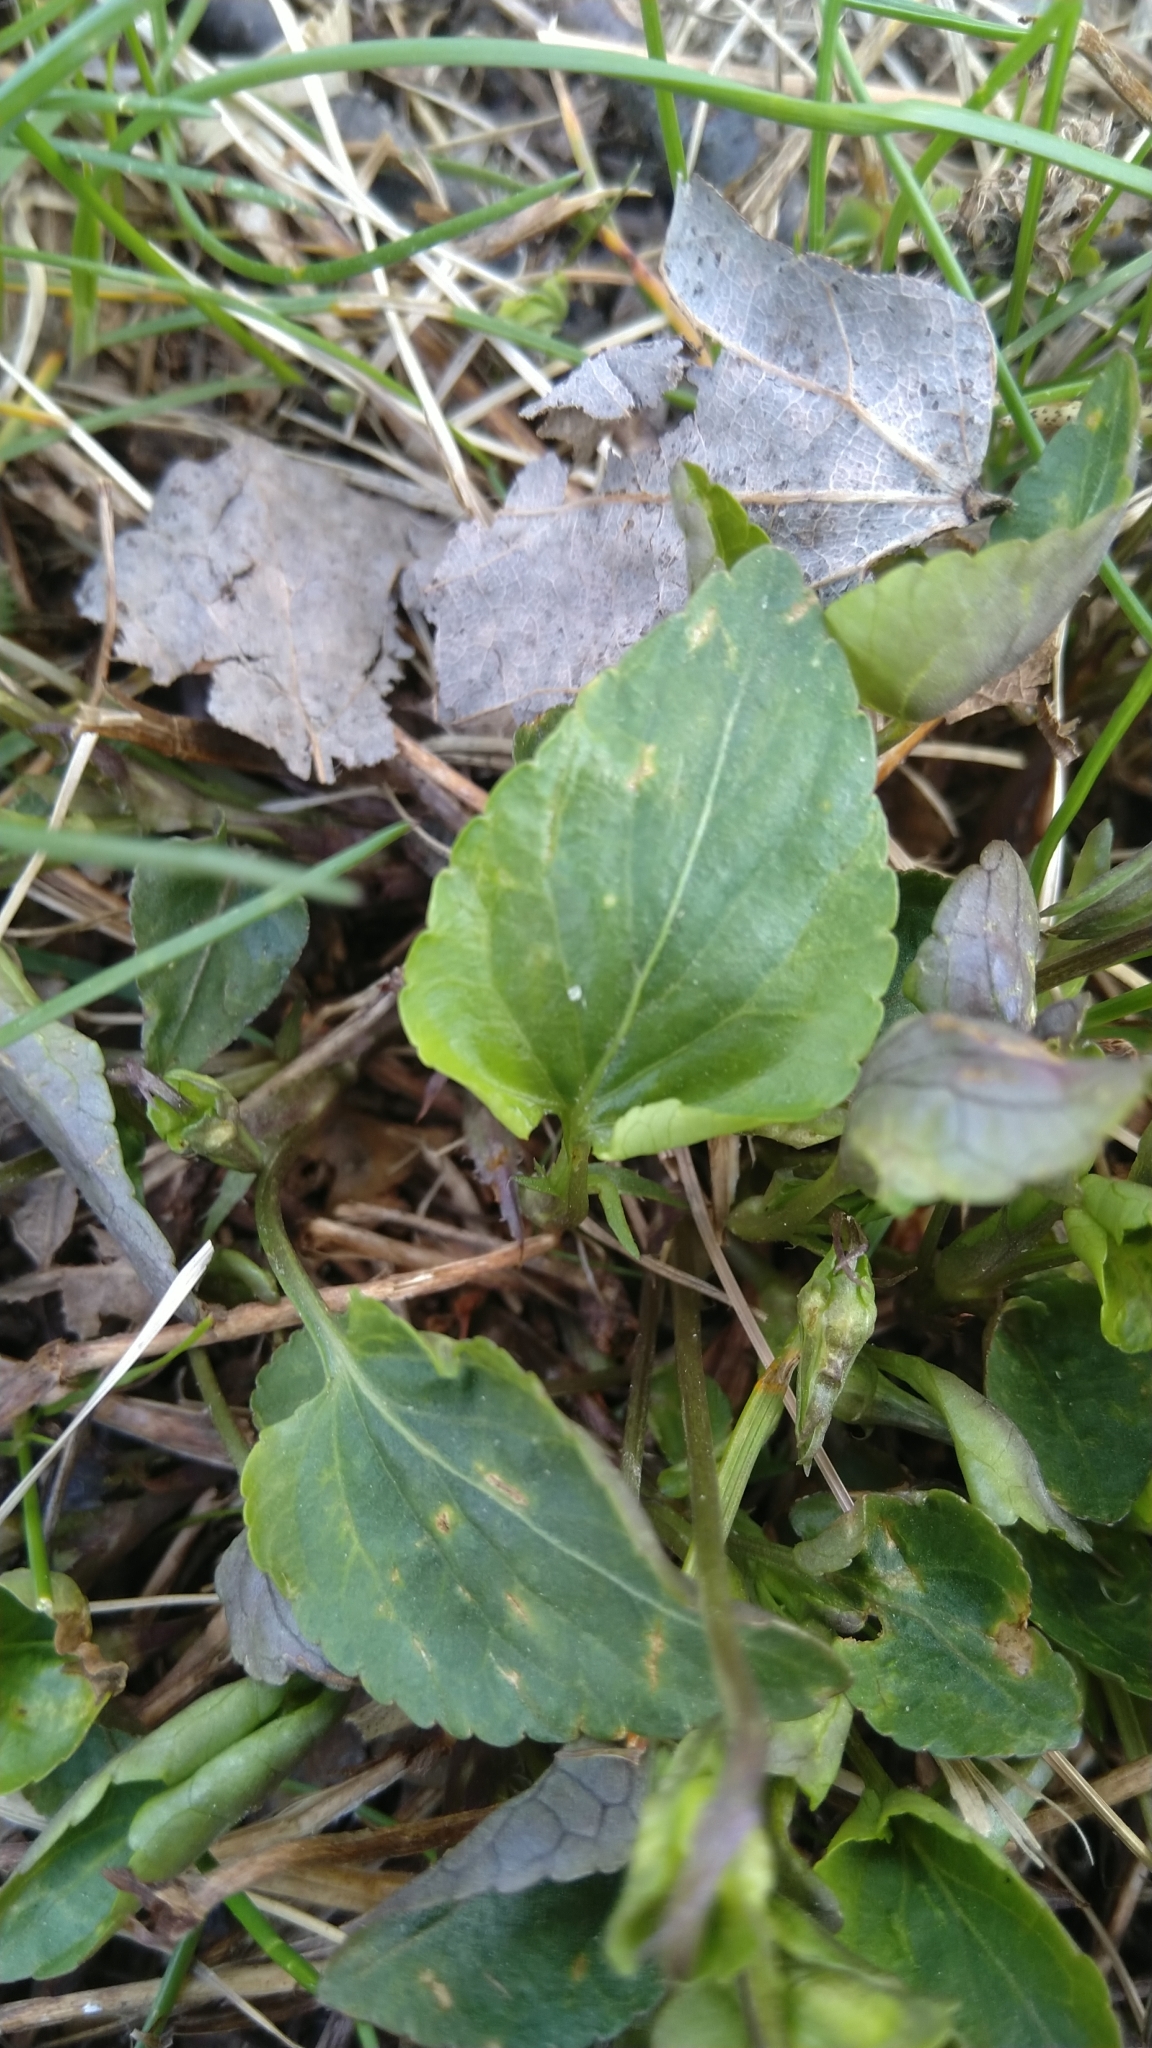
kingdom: Plantae
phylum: Tracheophyta
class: Magnoliopsida
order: Malpighiales
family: Violaceae
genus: Viola
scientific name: Viola riviniana
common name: Common dog-violet
